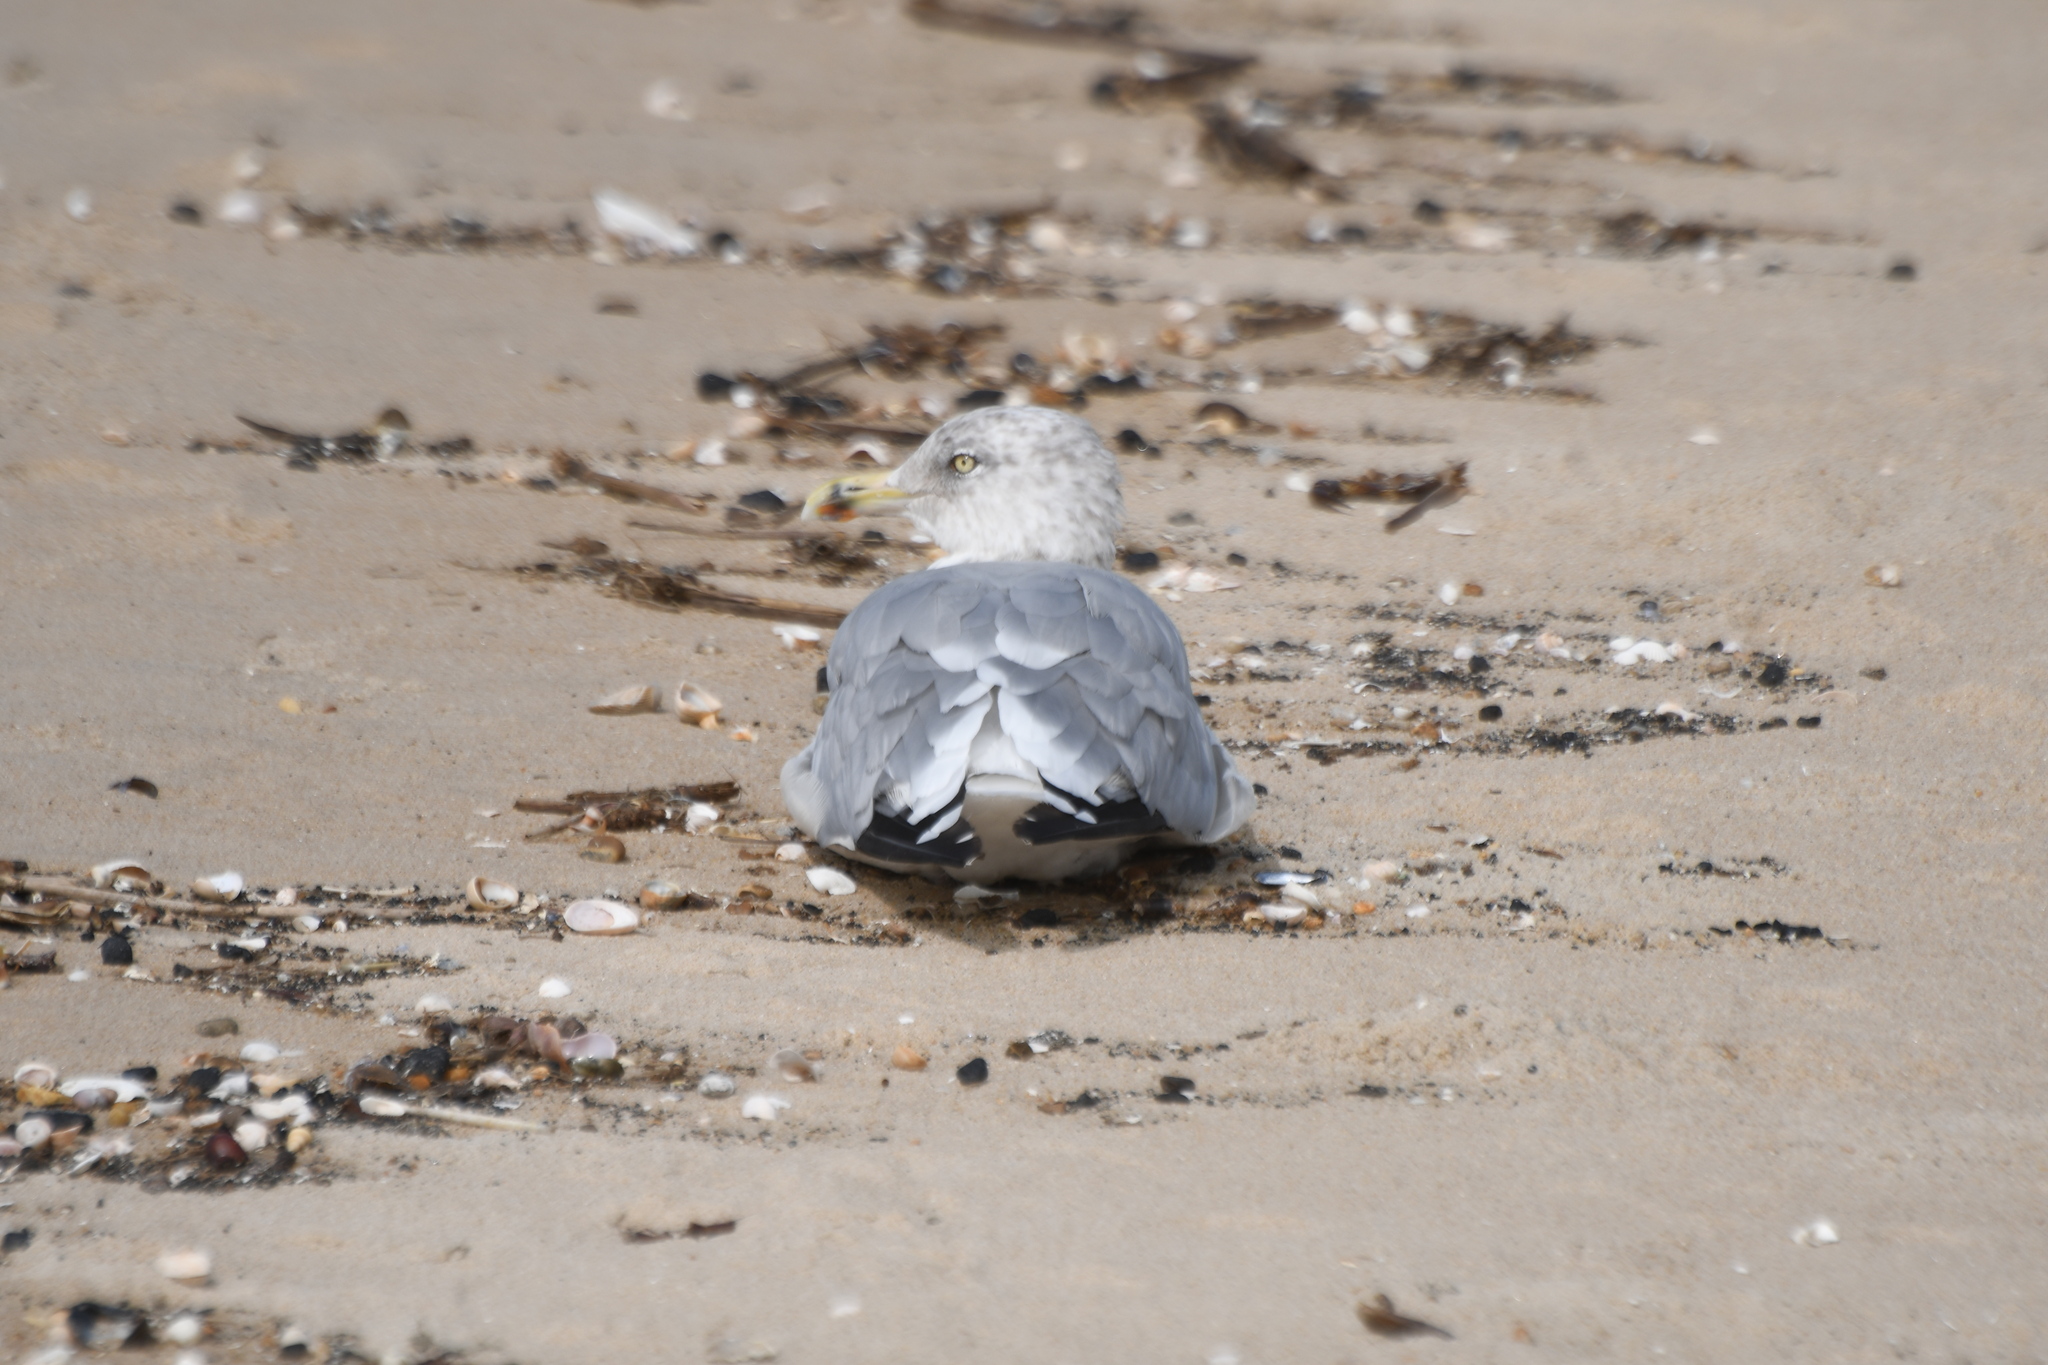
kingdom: Animalia
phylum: Chordata
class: Aves
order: Charadriiformes
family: Laridae
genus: Larus
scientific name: Larus delawarensis
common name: Ring-billed gull
